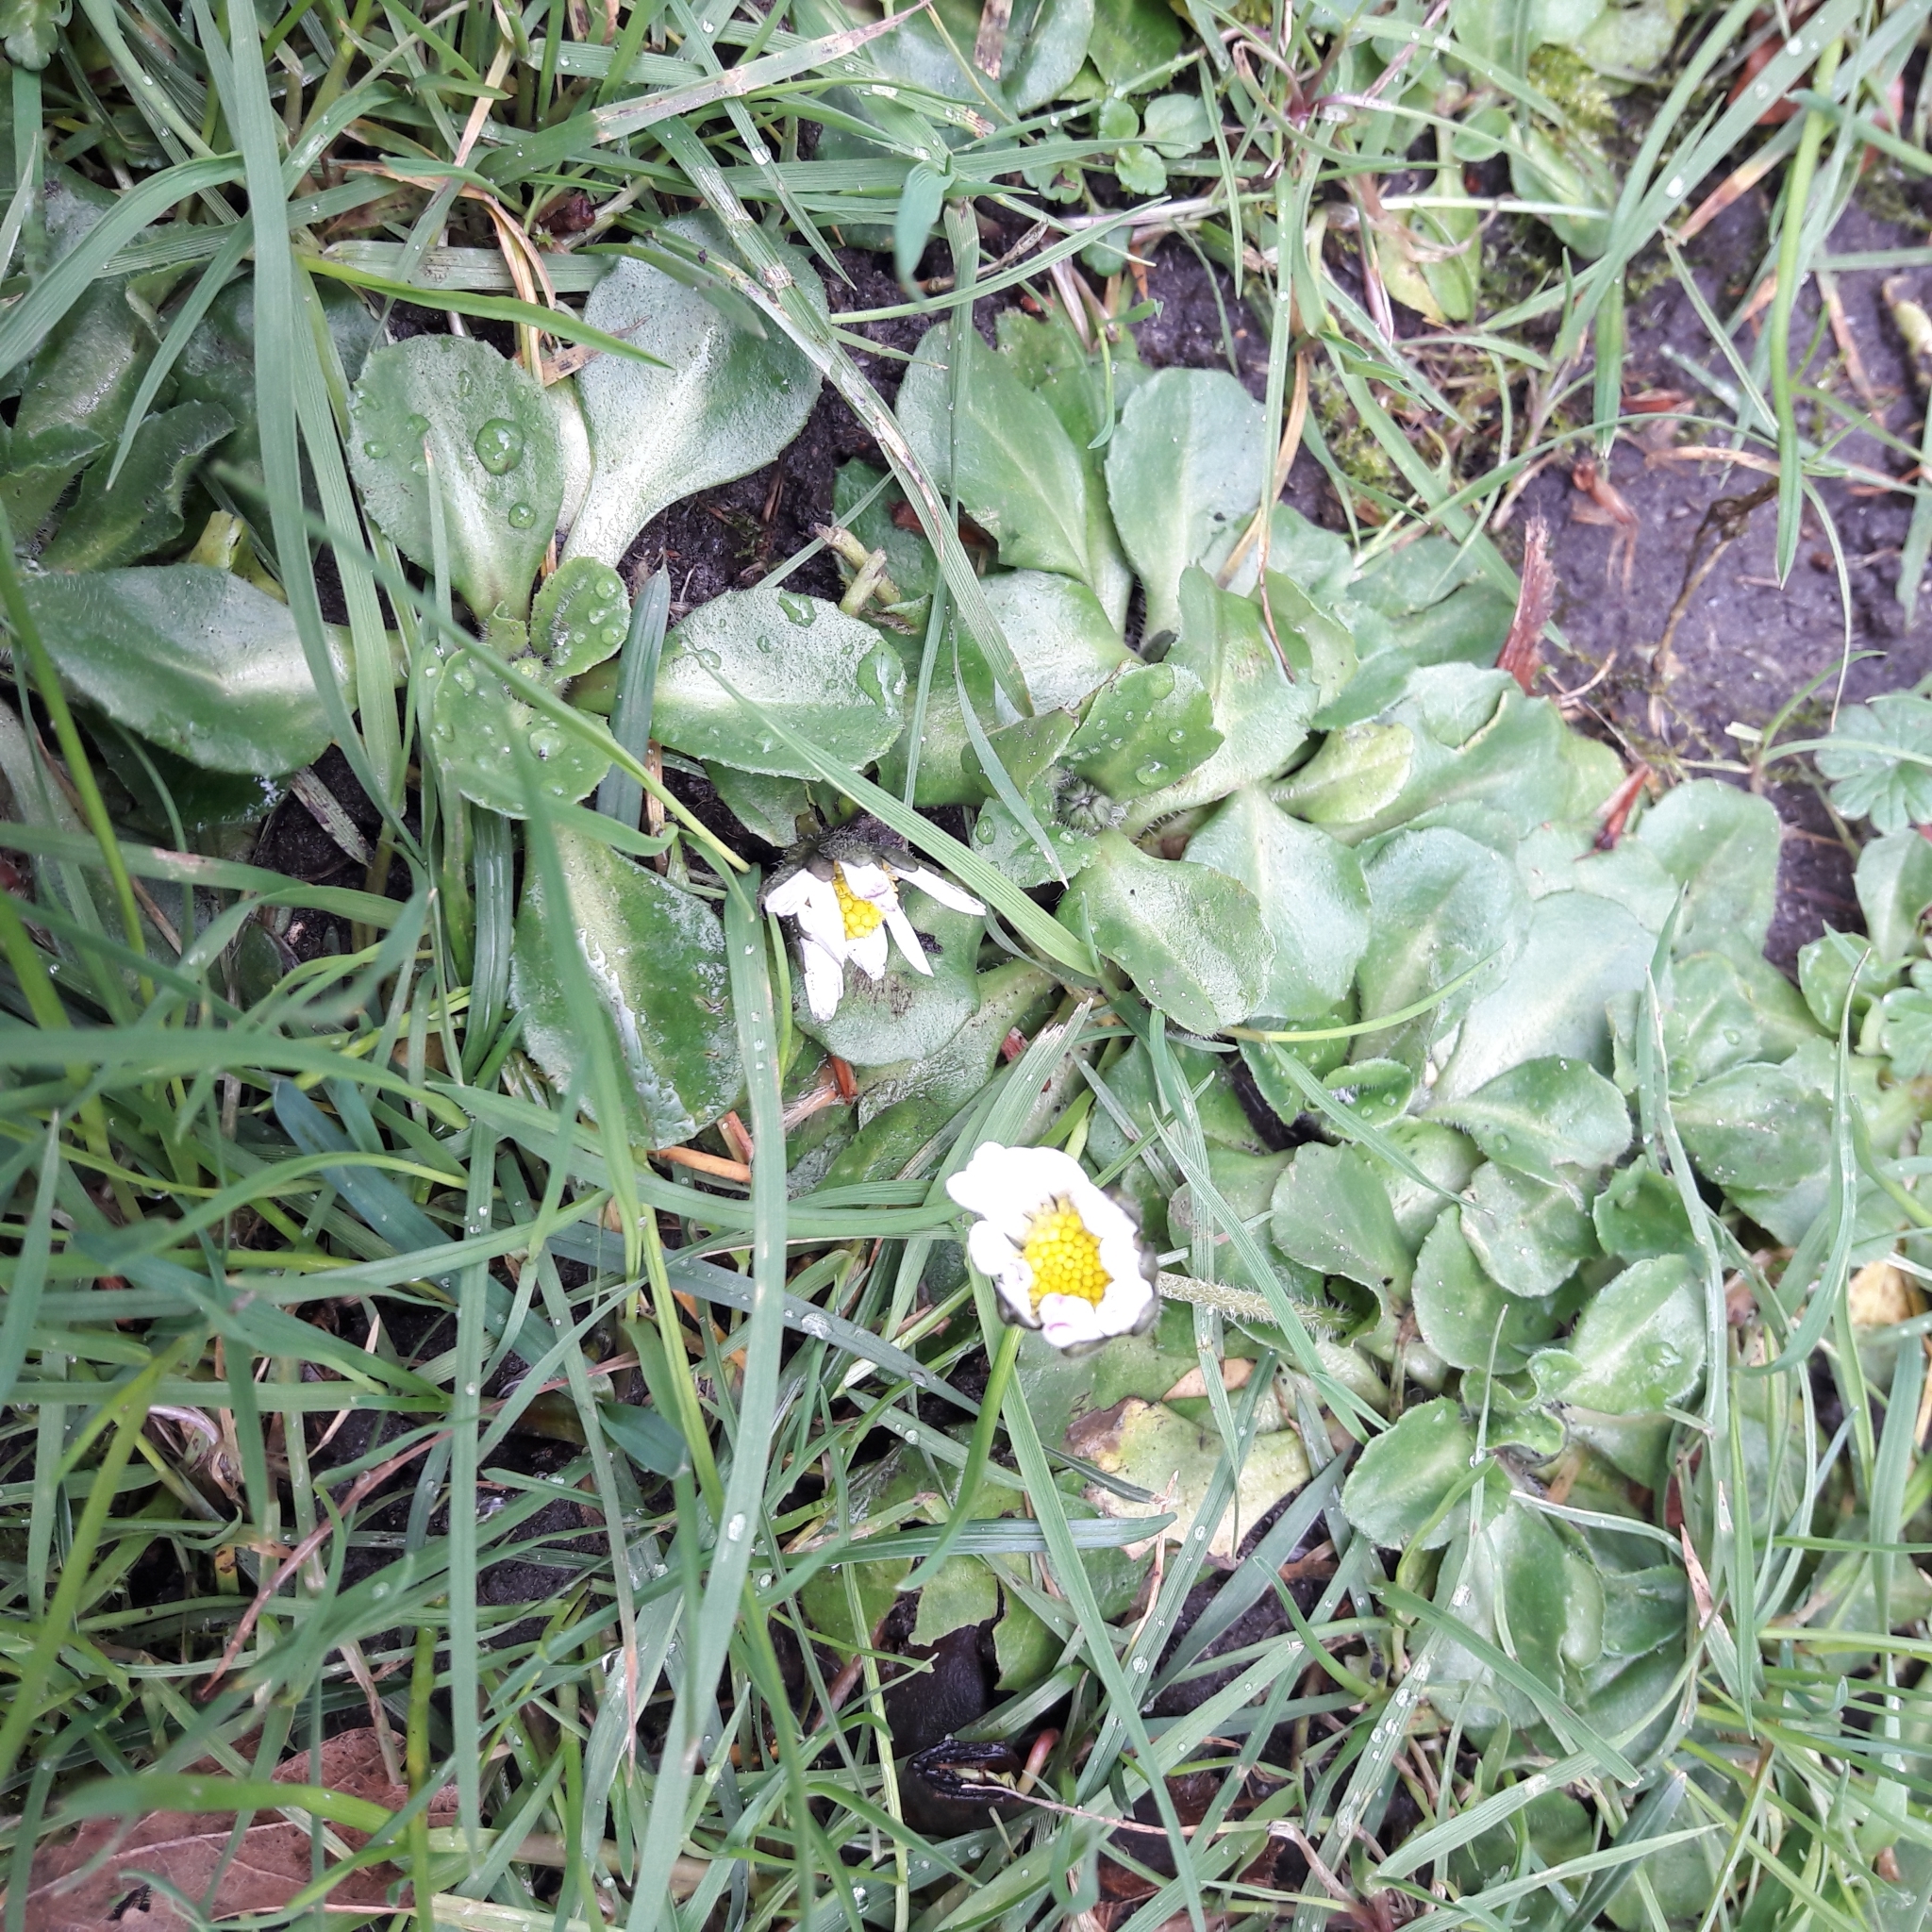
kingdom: Plantae
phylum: Tracheophyta
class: Magnoliopsida
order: Asterales
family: Asteraceae
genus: Bellis
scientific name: Bellis perennis
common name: Lawndaisy
